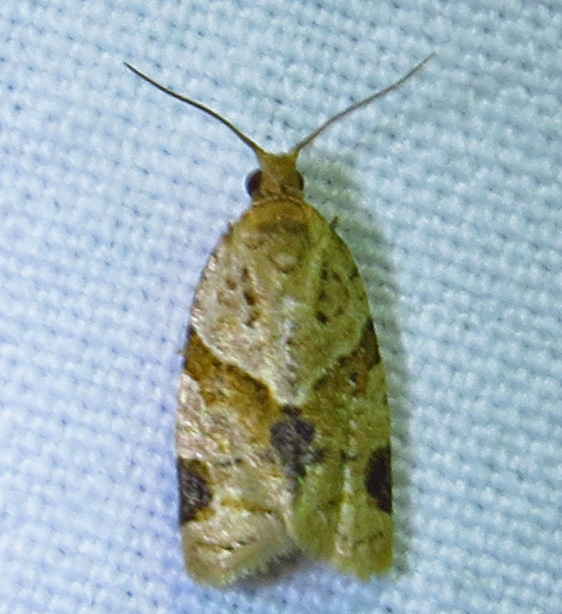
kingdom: Animalia
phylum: Arthropoda
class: Insecta
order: Lepidoptera
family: Tortricidae
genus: Clepsis
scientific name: Clepsis peritana
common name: Garden tortrix
